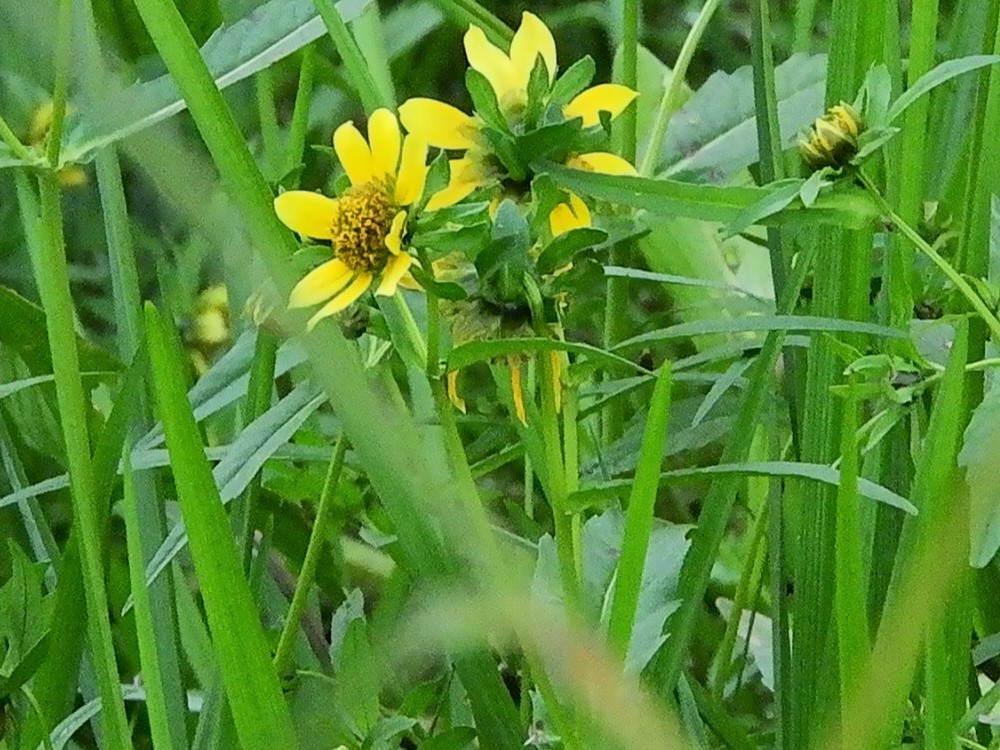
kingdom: Plantae
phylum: Tracheophyta
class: Magnoliopsida
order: Asterales
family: Asteraceae
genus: Bidens
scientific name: Bidens cernua
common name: Nodding bur-marigold
